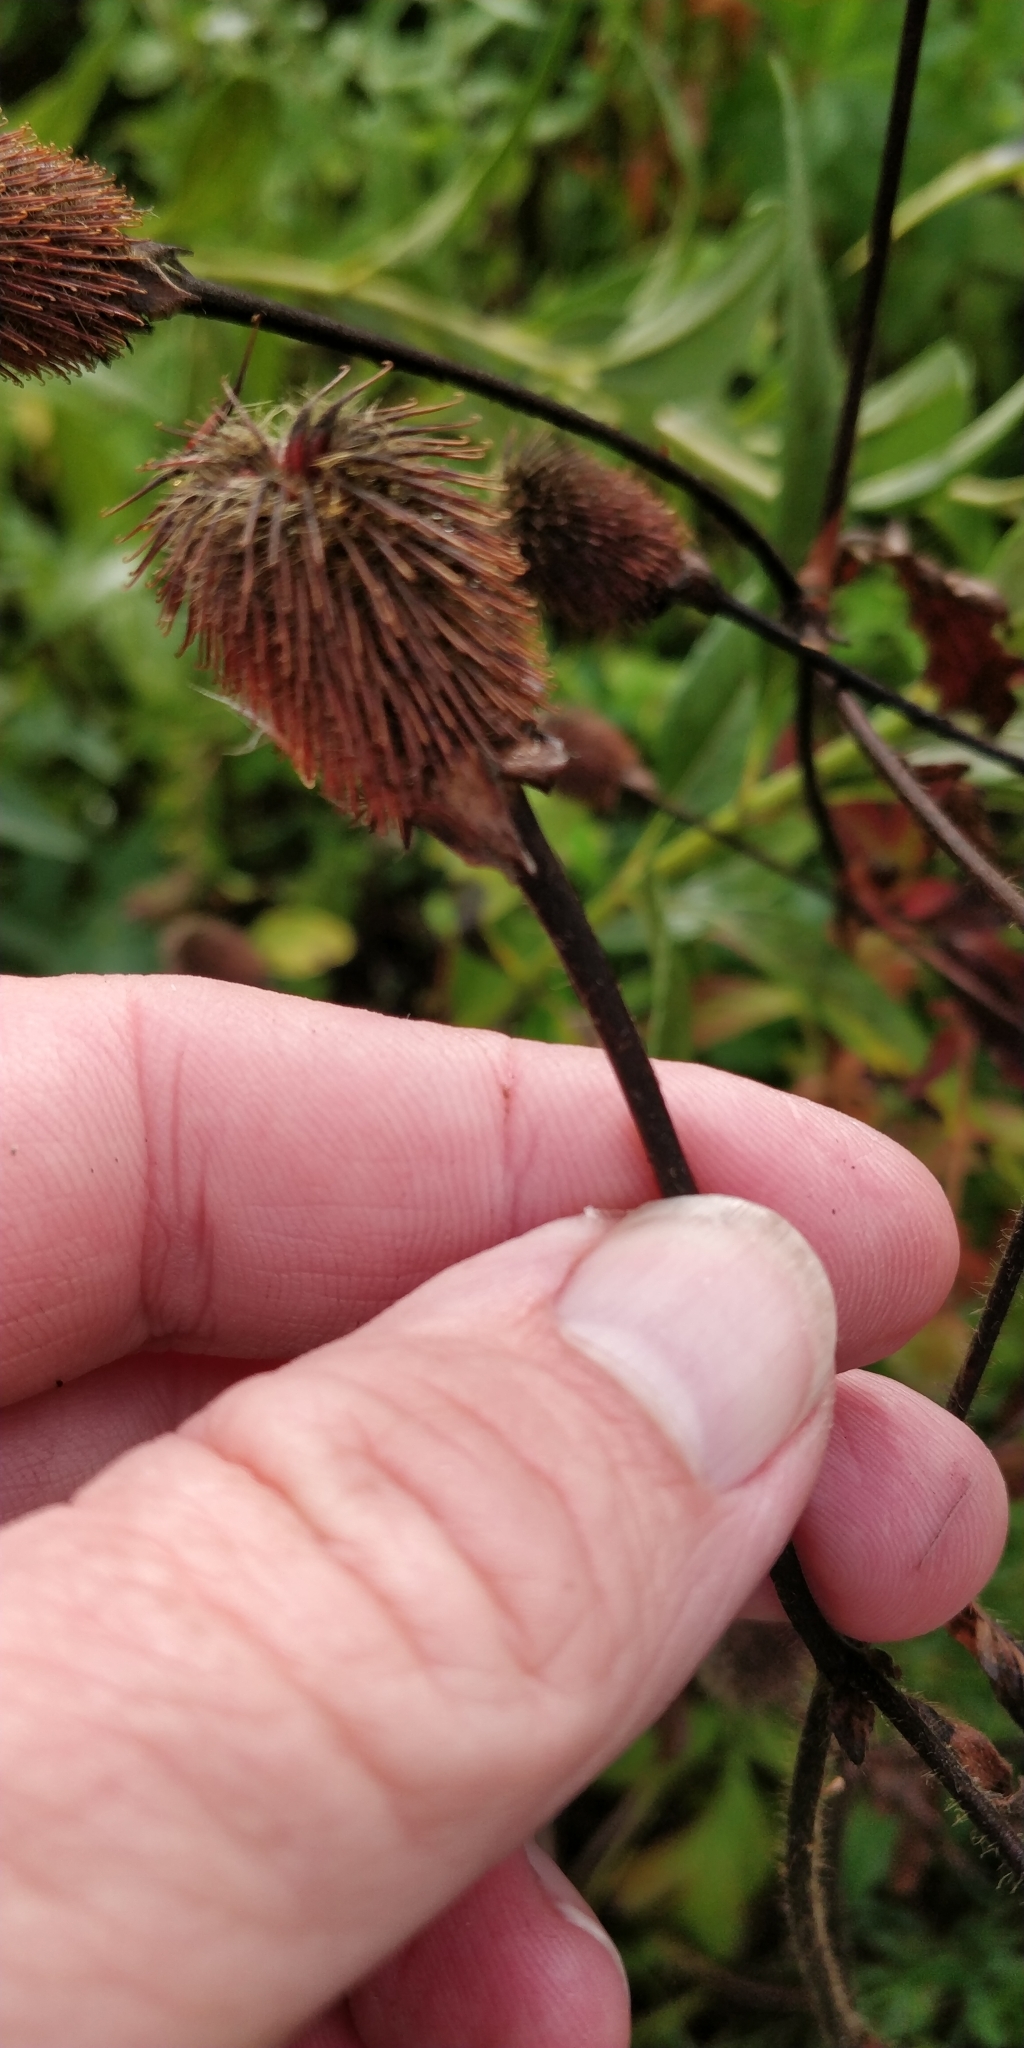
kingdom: Plantae
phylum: Tracheophyta
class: Magnoliopsida
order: Rosales
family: Rosaceae
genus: Geum
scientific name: Geum aleppicum
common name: Yellow avens
